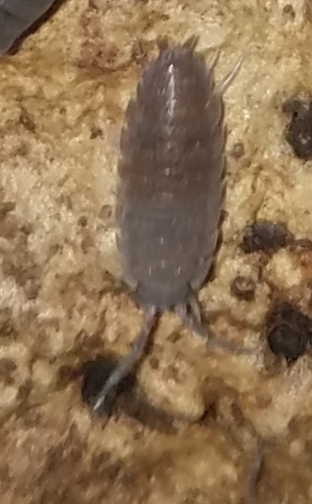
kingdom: Animalia
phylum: Arthropoda
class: Malacostraca
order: Isopoda
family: Porcellionidae
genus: Porcellio
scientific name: Porcellio scaber
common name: Common rough woodlouse
